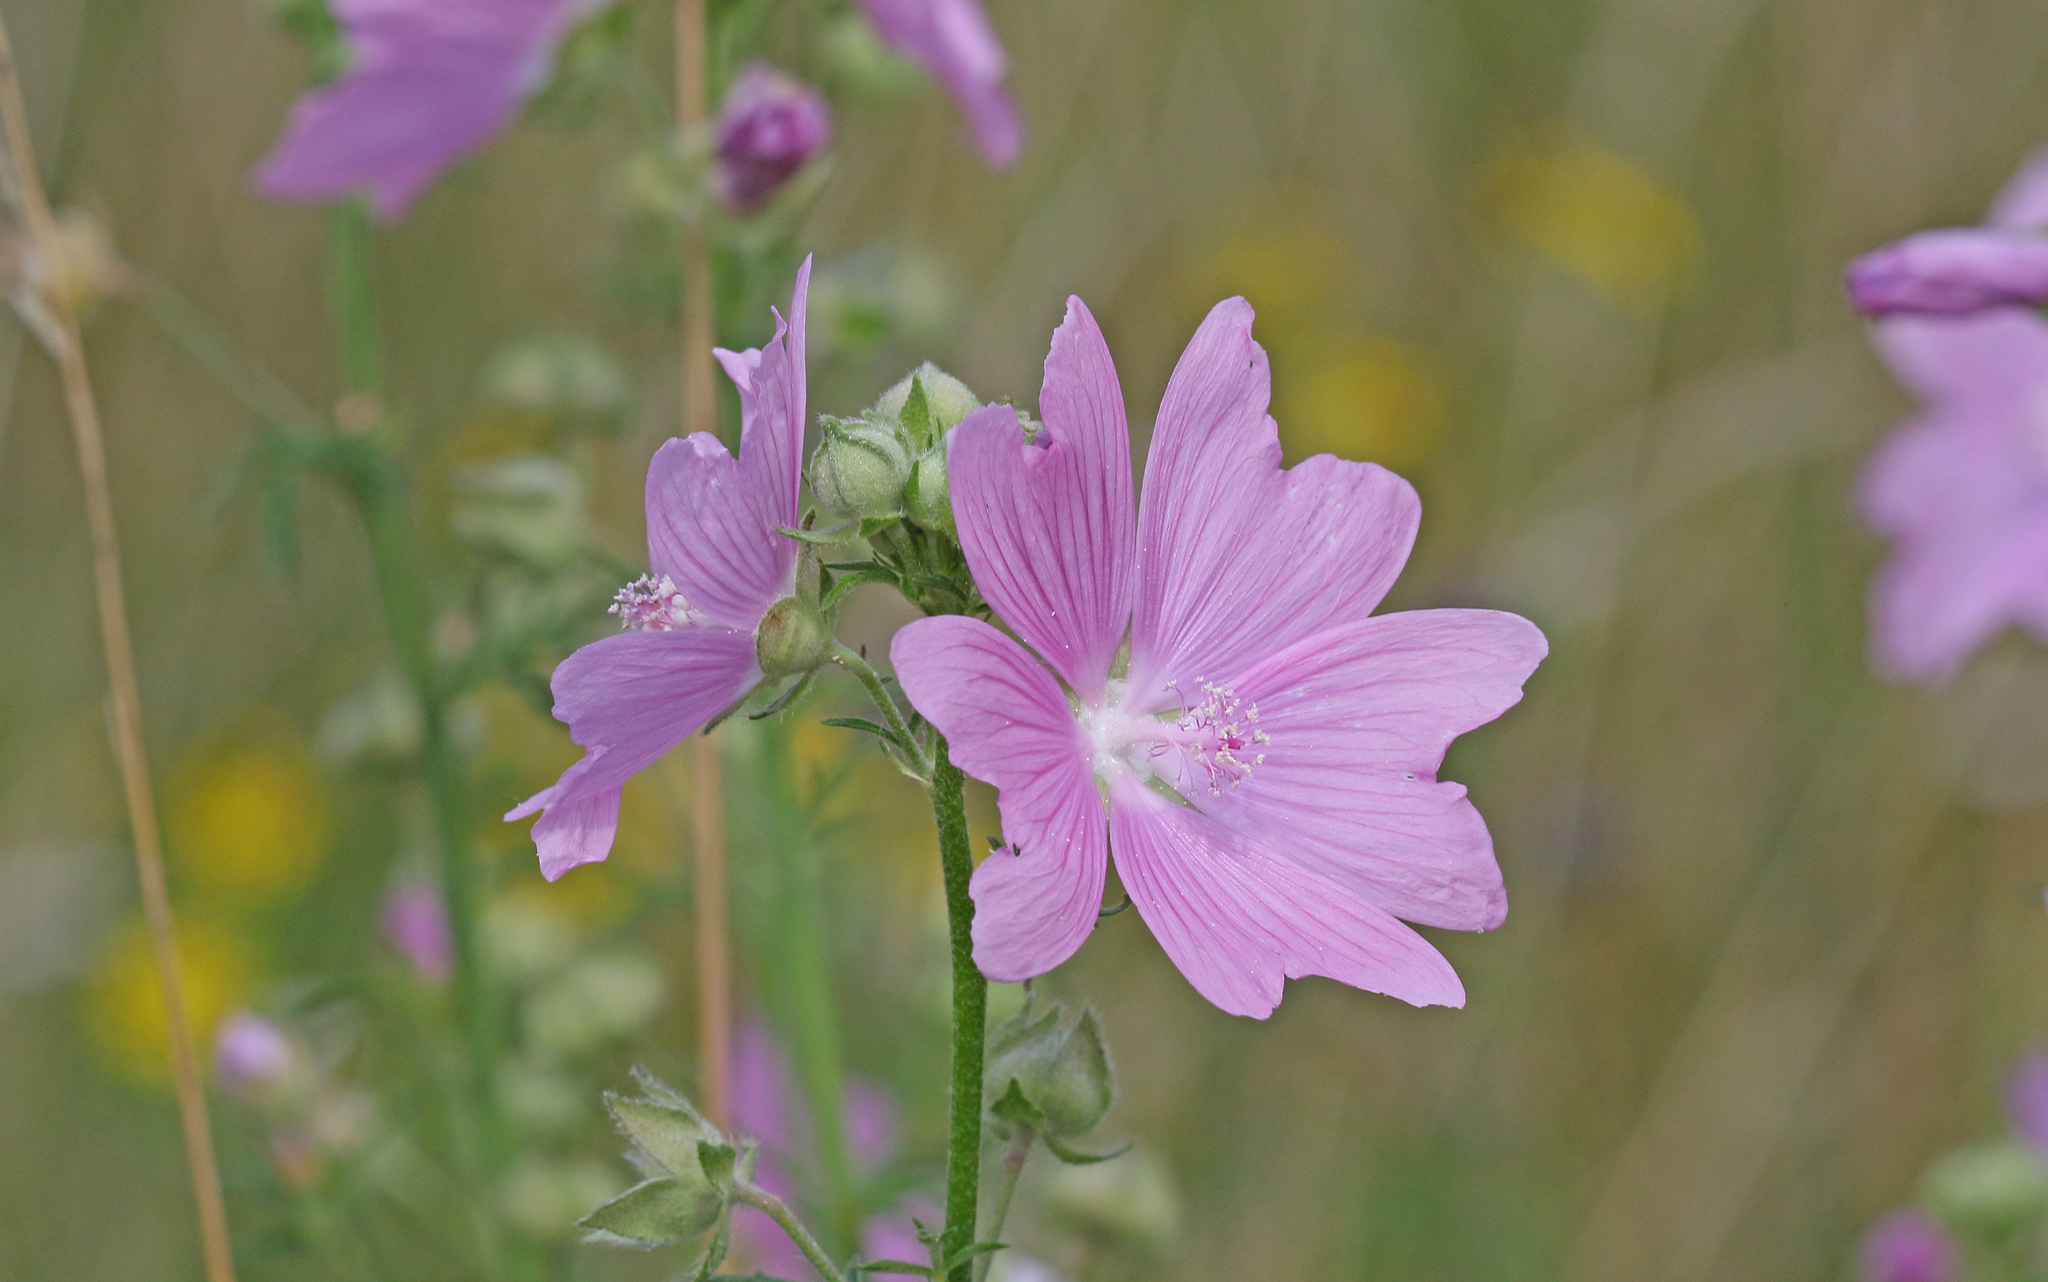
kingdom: Plantae
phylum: Tracheophyta
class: Magnoliopsida
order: Malvales
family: Malvaceae
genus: Malva
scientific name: Malva alcea
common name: Greater musk-mallow
